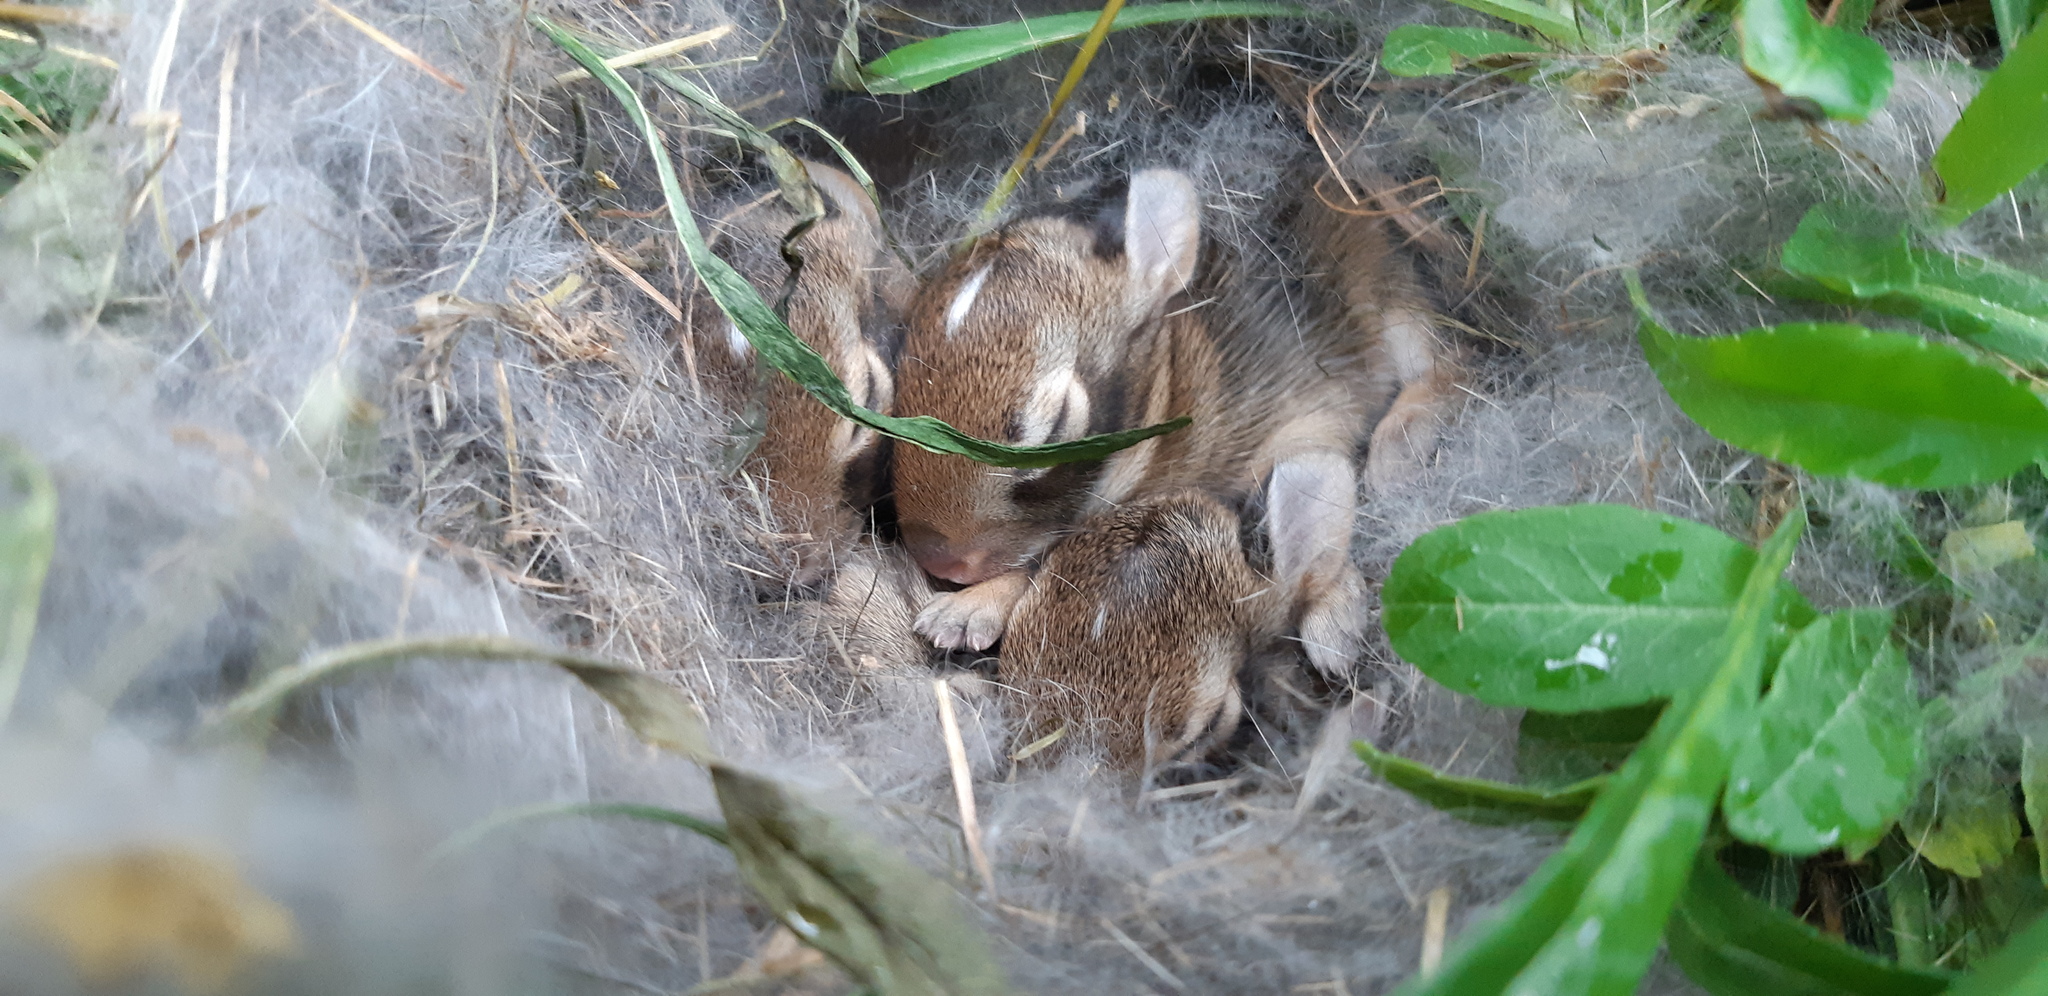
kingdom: Animalia
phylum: Chordata
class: Mammalia
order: Lagomorpha
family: Leporidae
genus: Sylvilagus
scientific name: Sylvilagus floridanus
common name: Eastern cottontail
